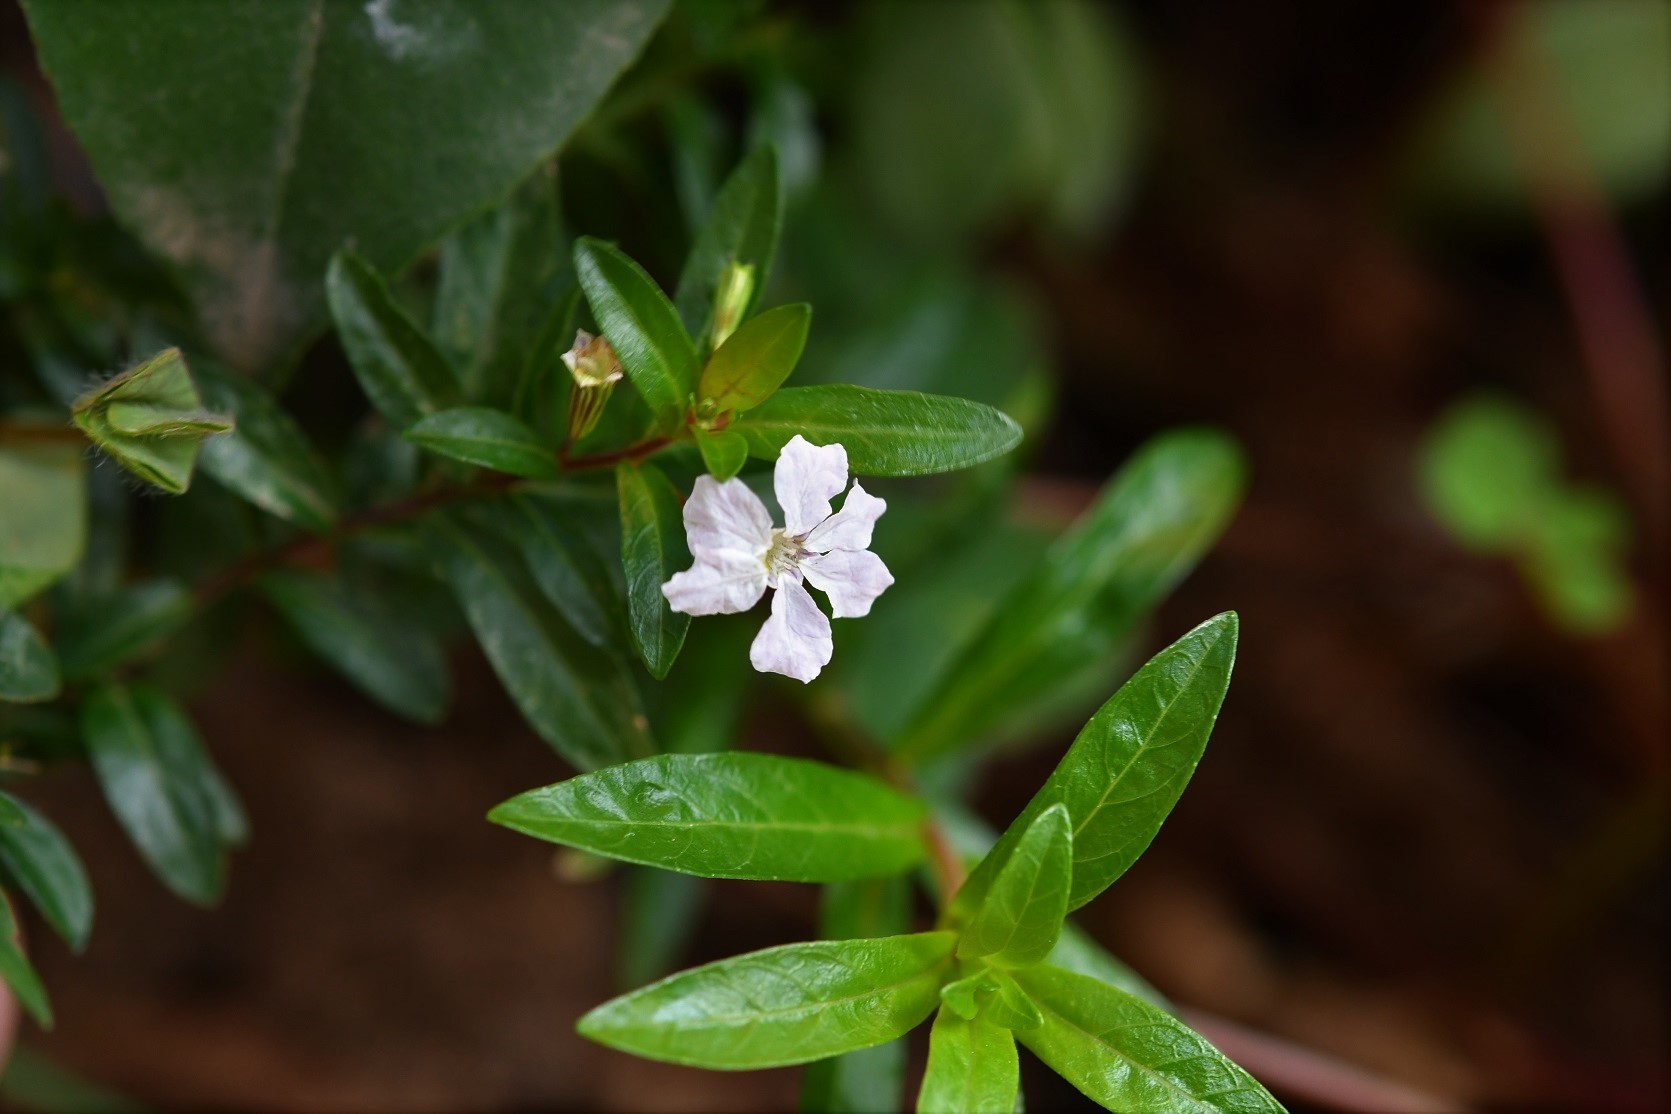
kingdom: Plantae
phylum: Tracheophyta
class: Magnoliopsida
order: Myrtales
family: Lythraceae
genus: Cuphea
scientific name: Cuphea hyssopifolia
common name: False heather
